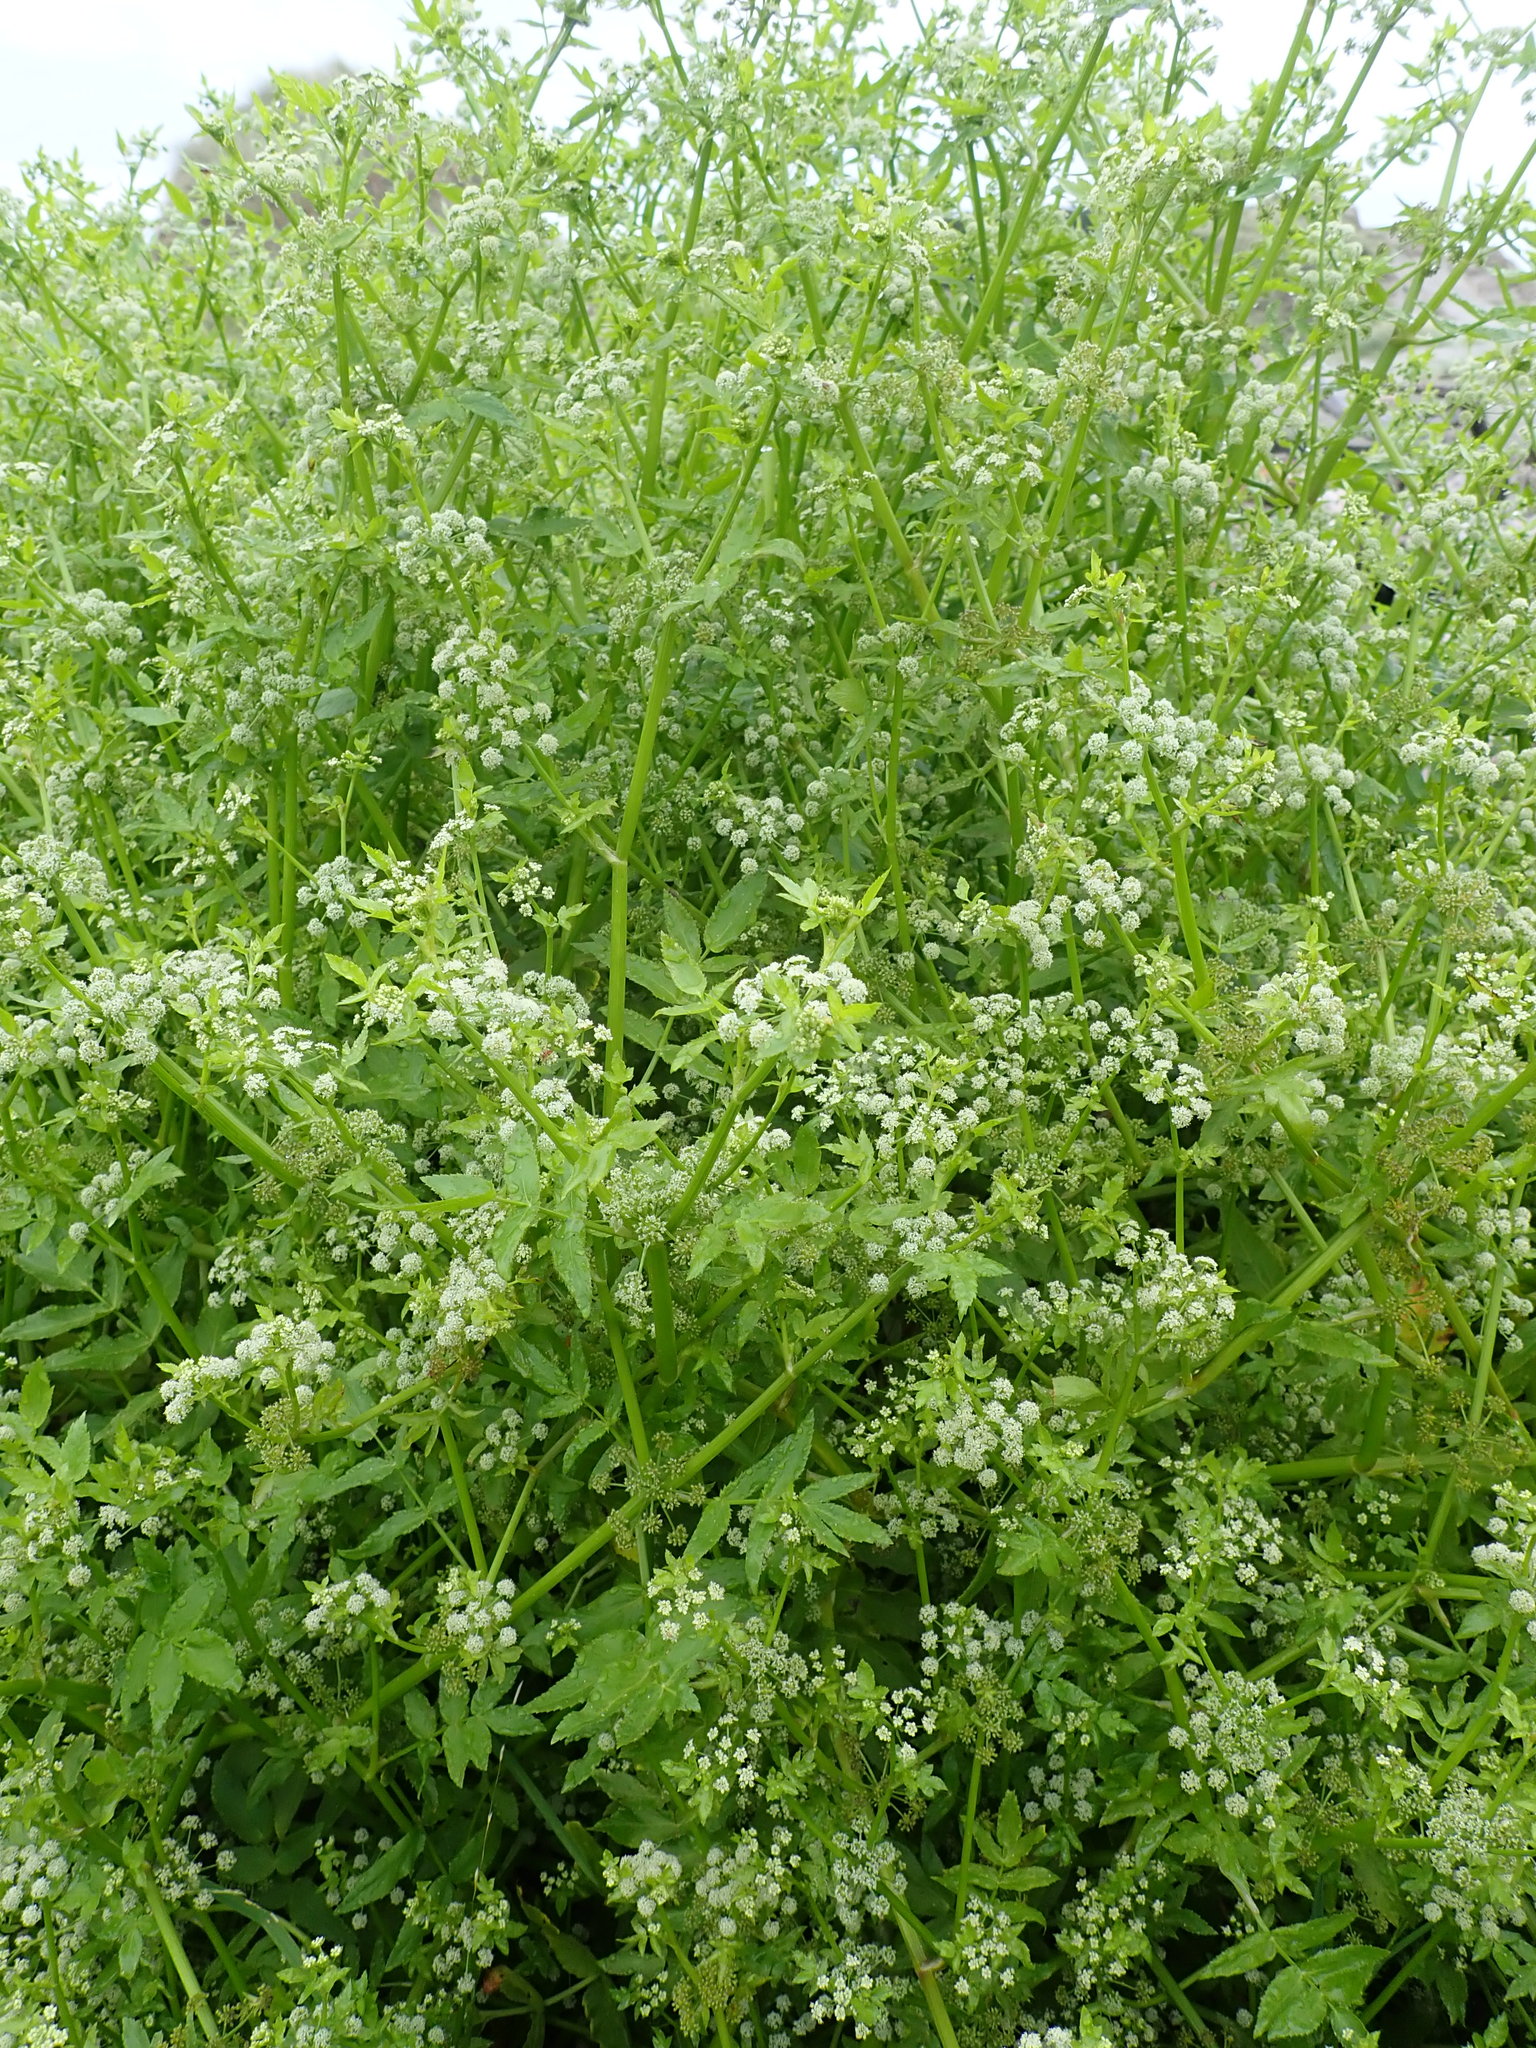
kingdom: Plantae
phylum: Tracheophyta
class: Magnoliopsida
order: Apiales
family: Apiaceae
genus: Helosciadium
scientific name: Helosciadium nodiflorum
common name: Fool's-watercress
